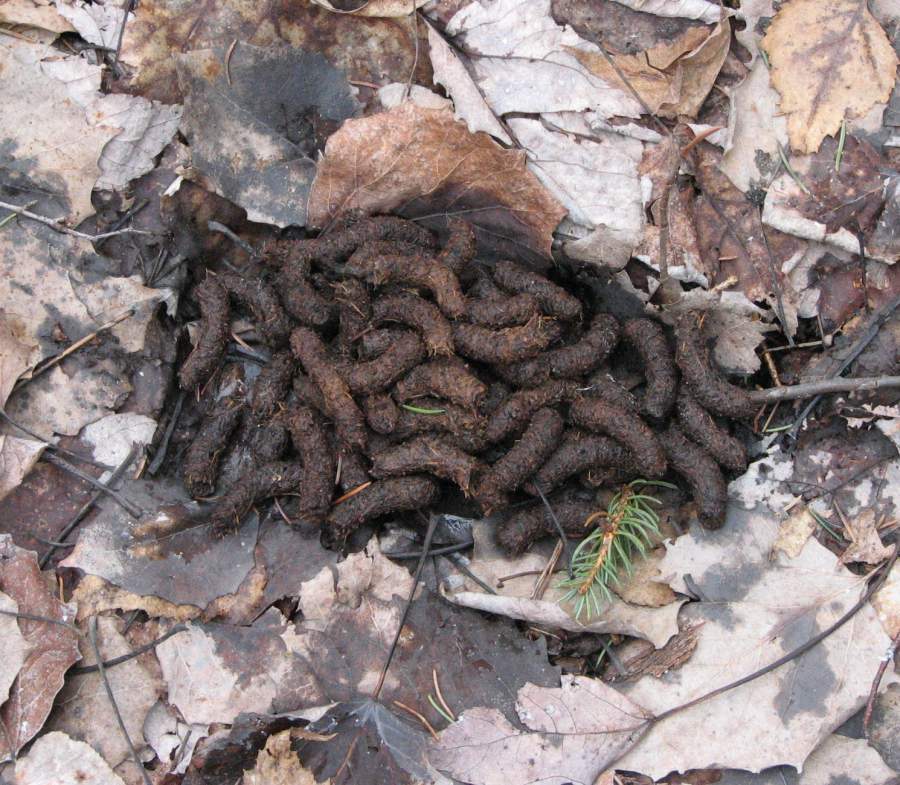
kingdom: Animalia
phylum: Chordata
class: Aves
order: Galliformes
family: Phasianidae
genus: Bonasa
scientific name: Bonasa umbellus
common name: Ruffed grouse
